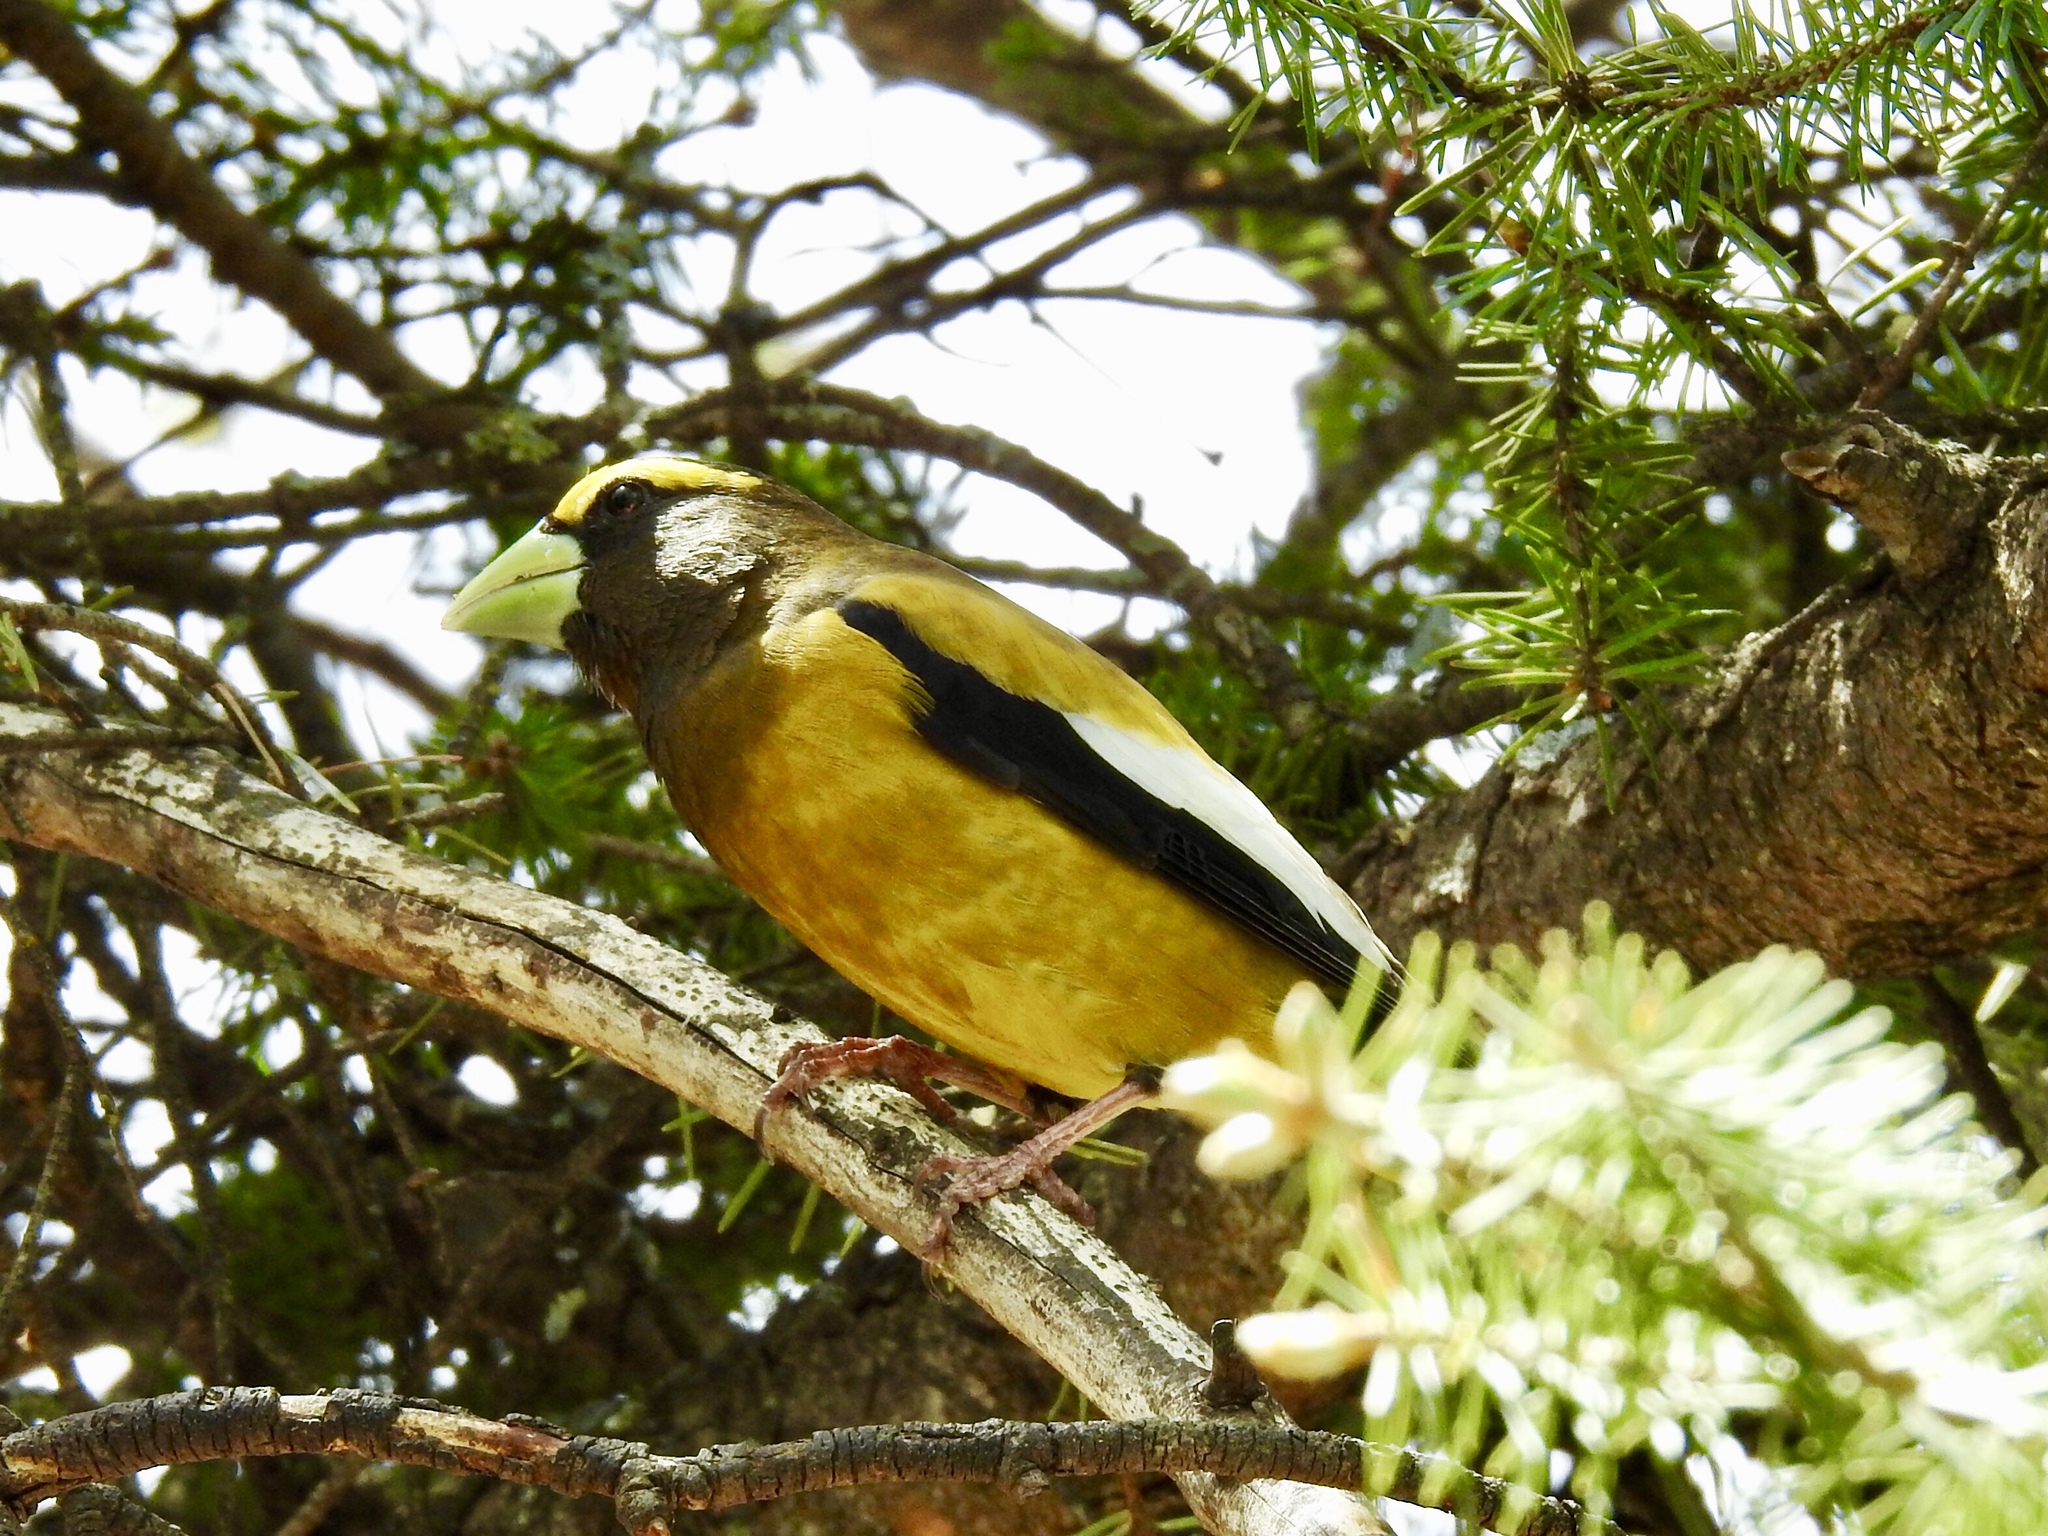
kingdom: Animalia
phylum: Chordata
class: Aves
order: Passeriformes
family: Fringillidae
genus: Hesperiphona
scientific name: Hesperiphona vespertina
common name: Evening grosbeak
